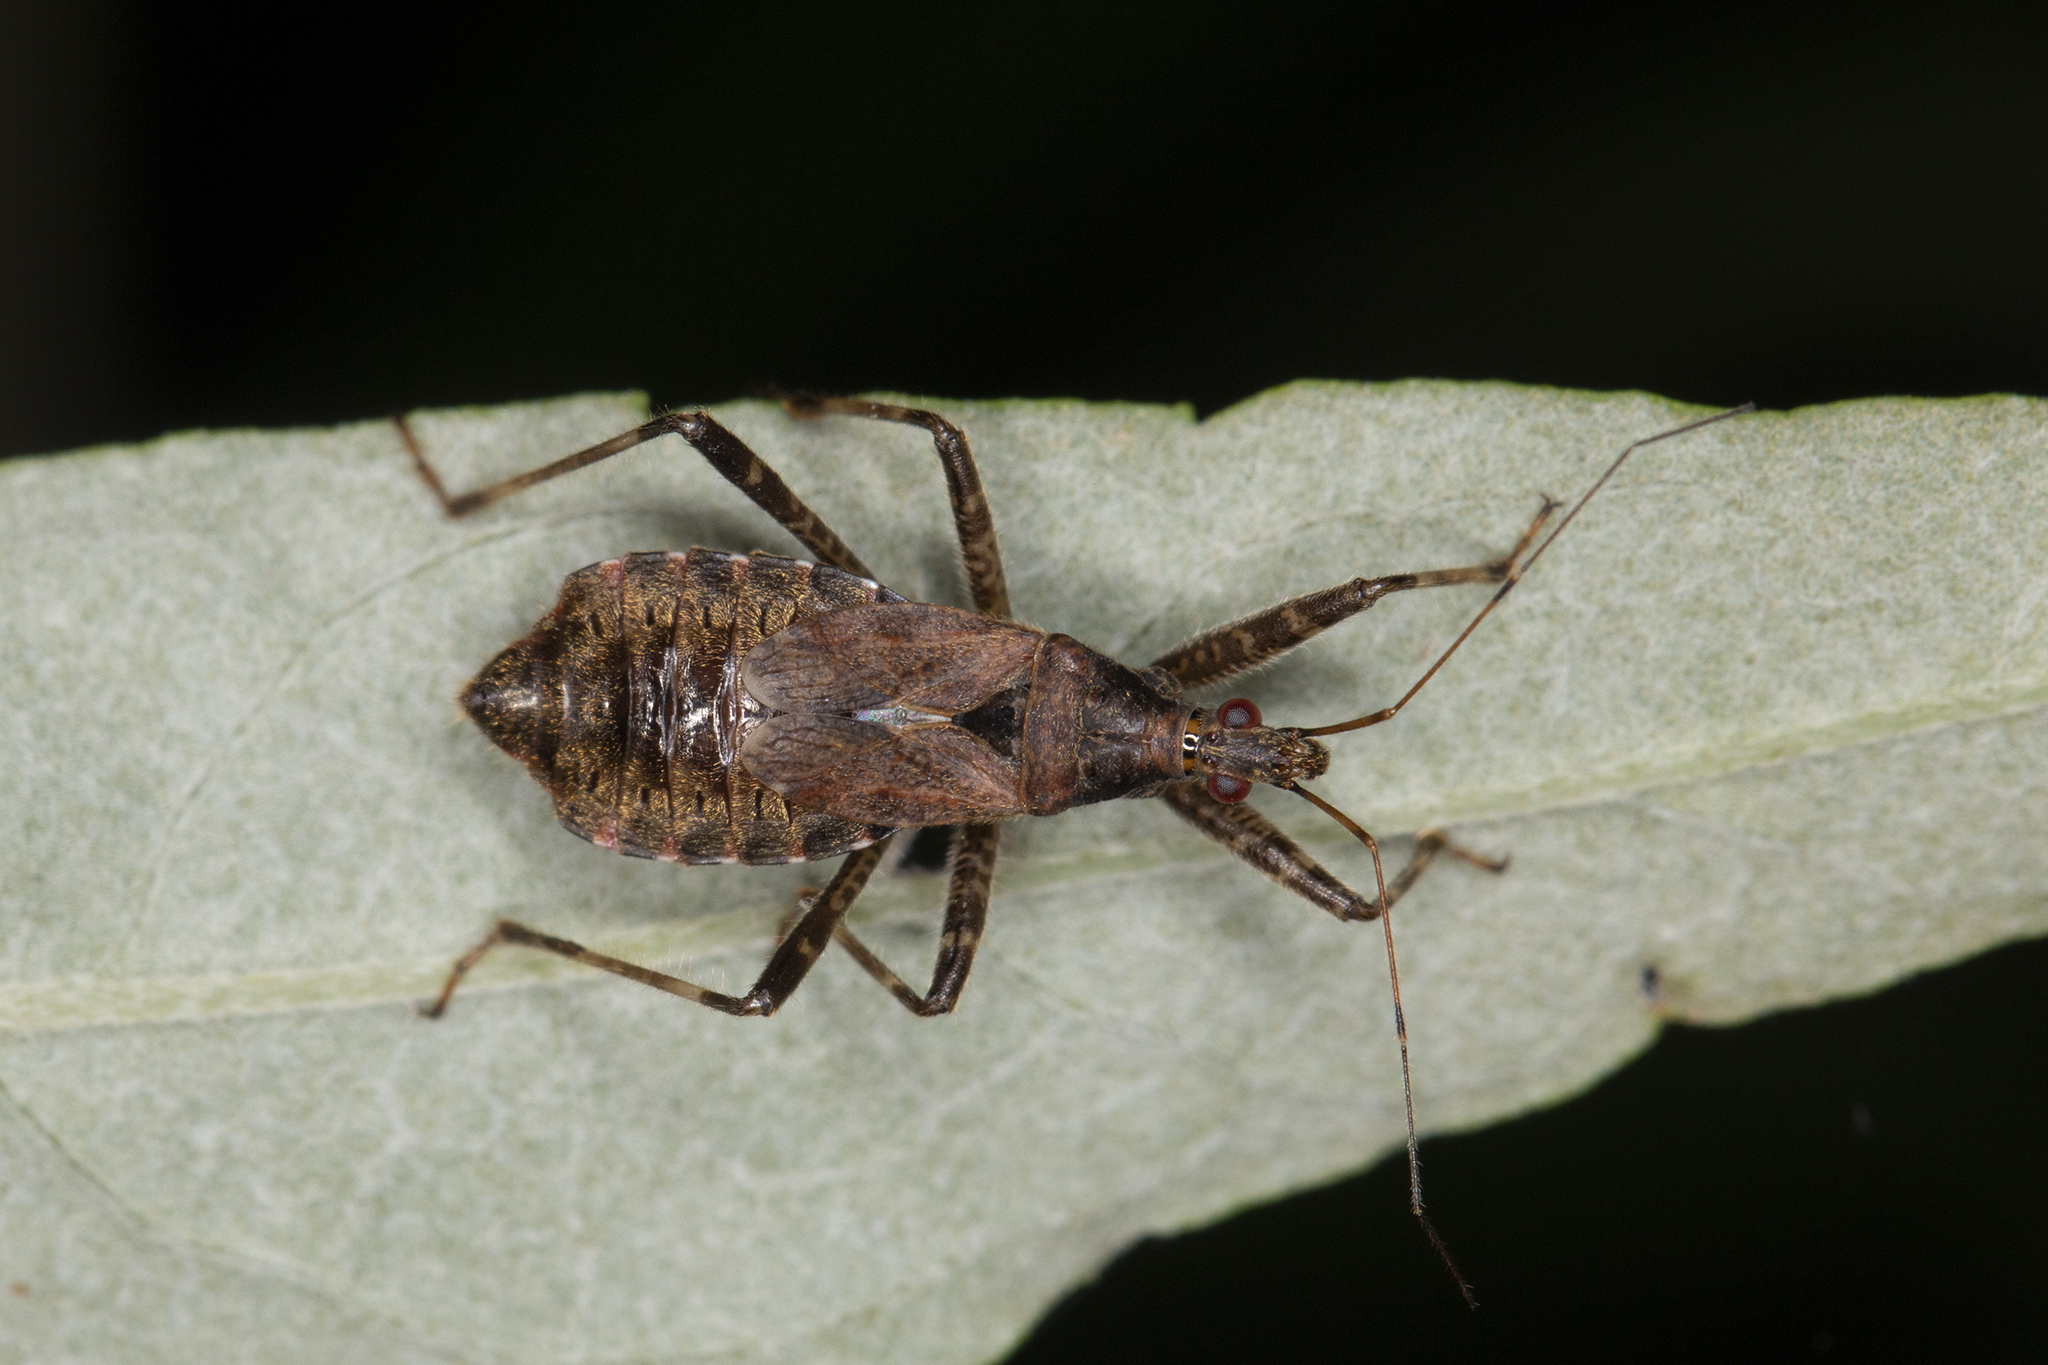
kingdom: Animalia
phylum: Arthropoda
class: Insecta
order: Hemiptera
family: Nabidae
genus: Himacerus
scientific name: Himacerus apterus
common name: Tree damsel bug
